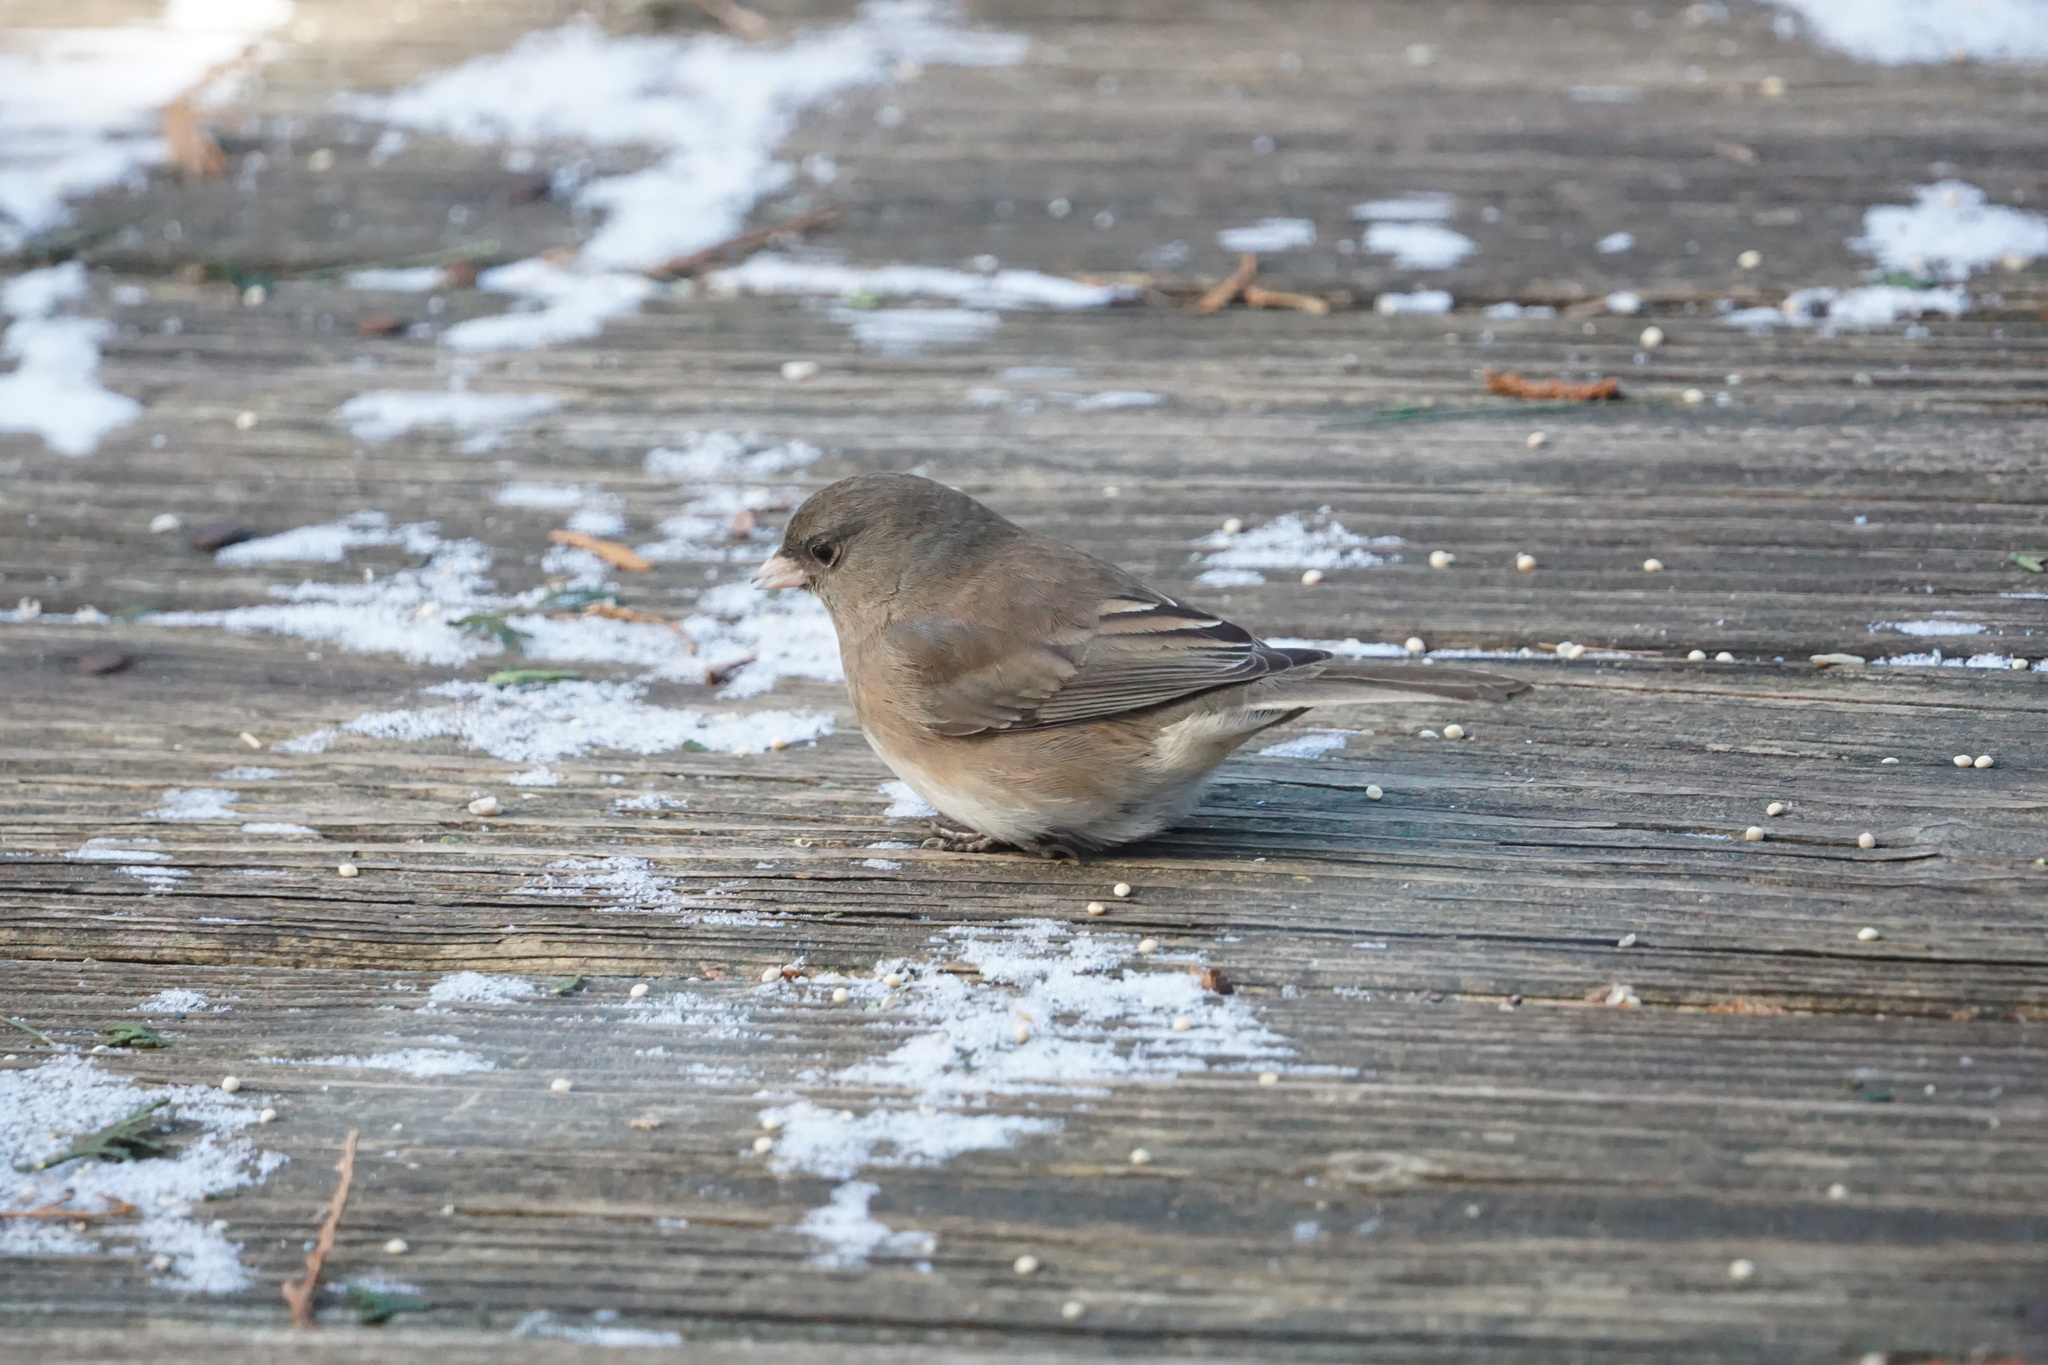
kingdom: Animalia
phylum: Chordata
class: Aves
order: Passeriformes
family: Passerellidae
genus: Junco
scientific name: Junco hyemalis
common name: Dark-eyed junco
